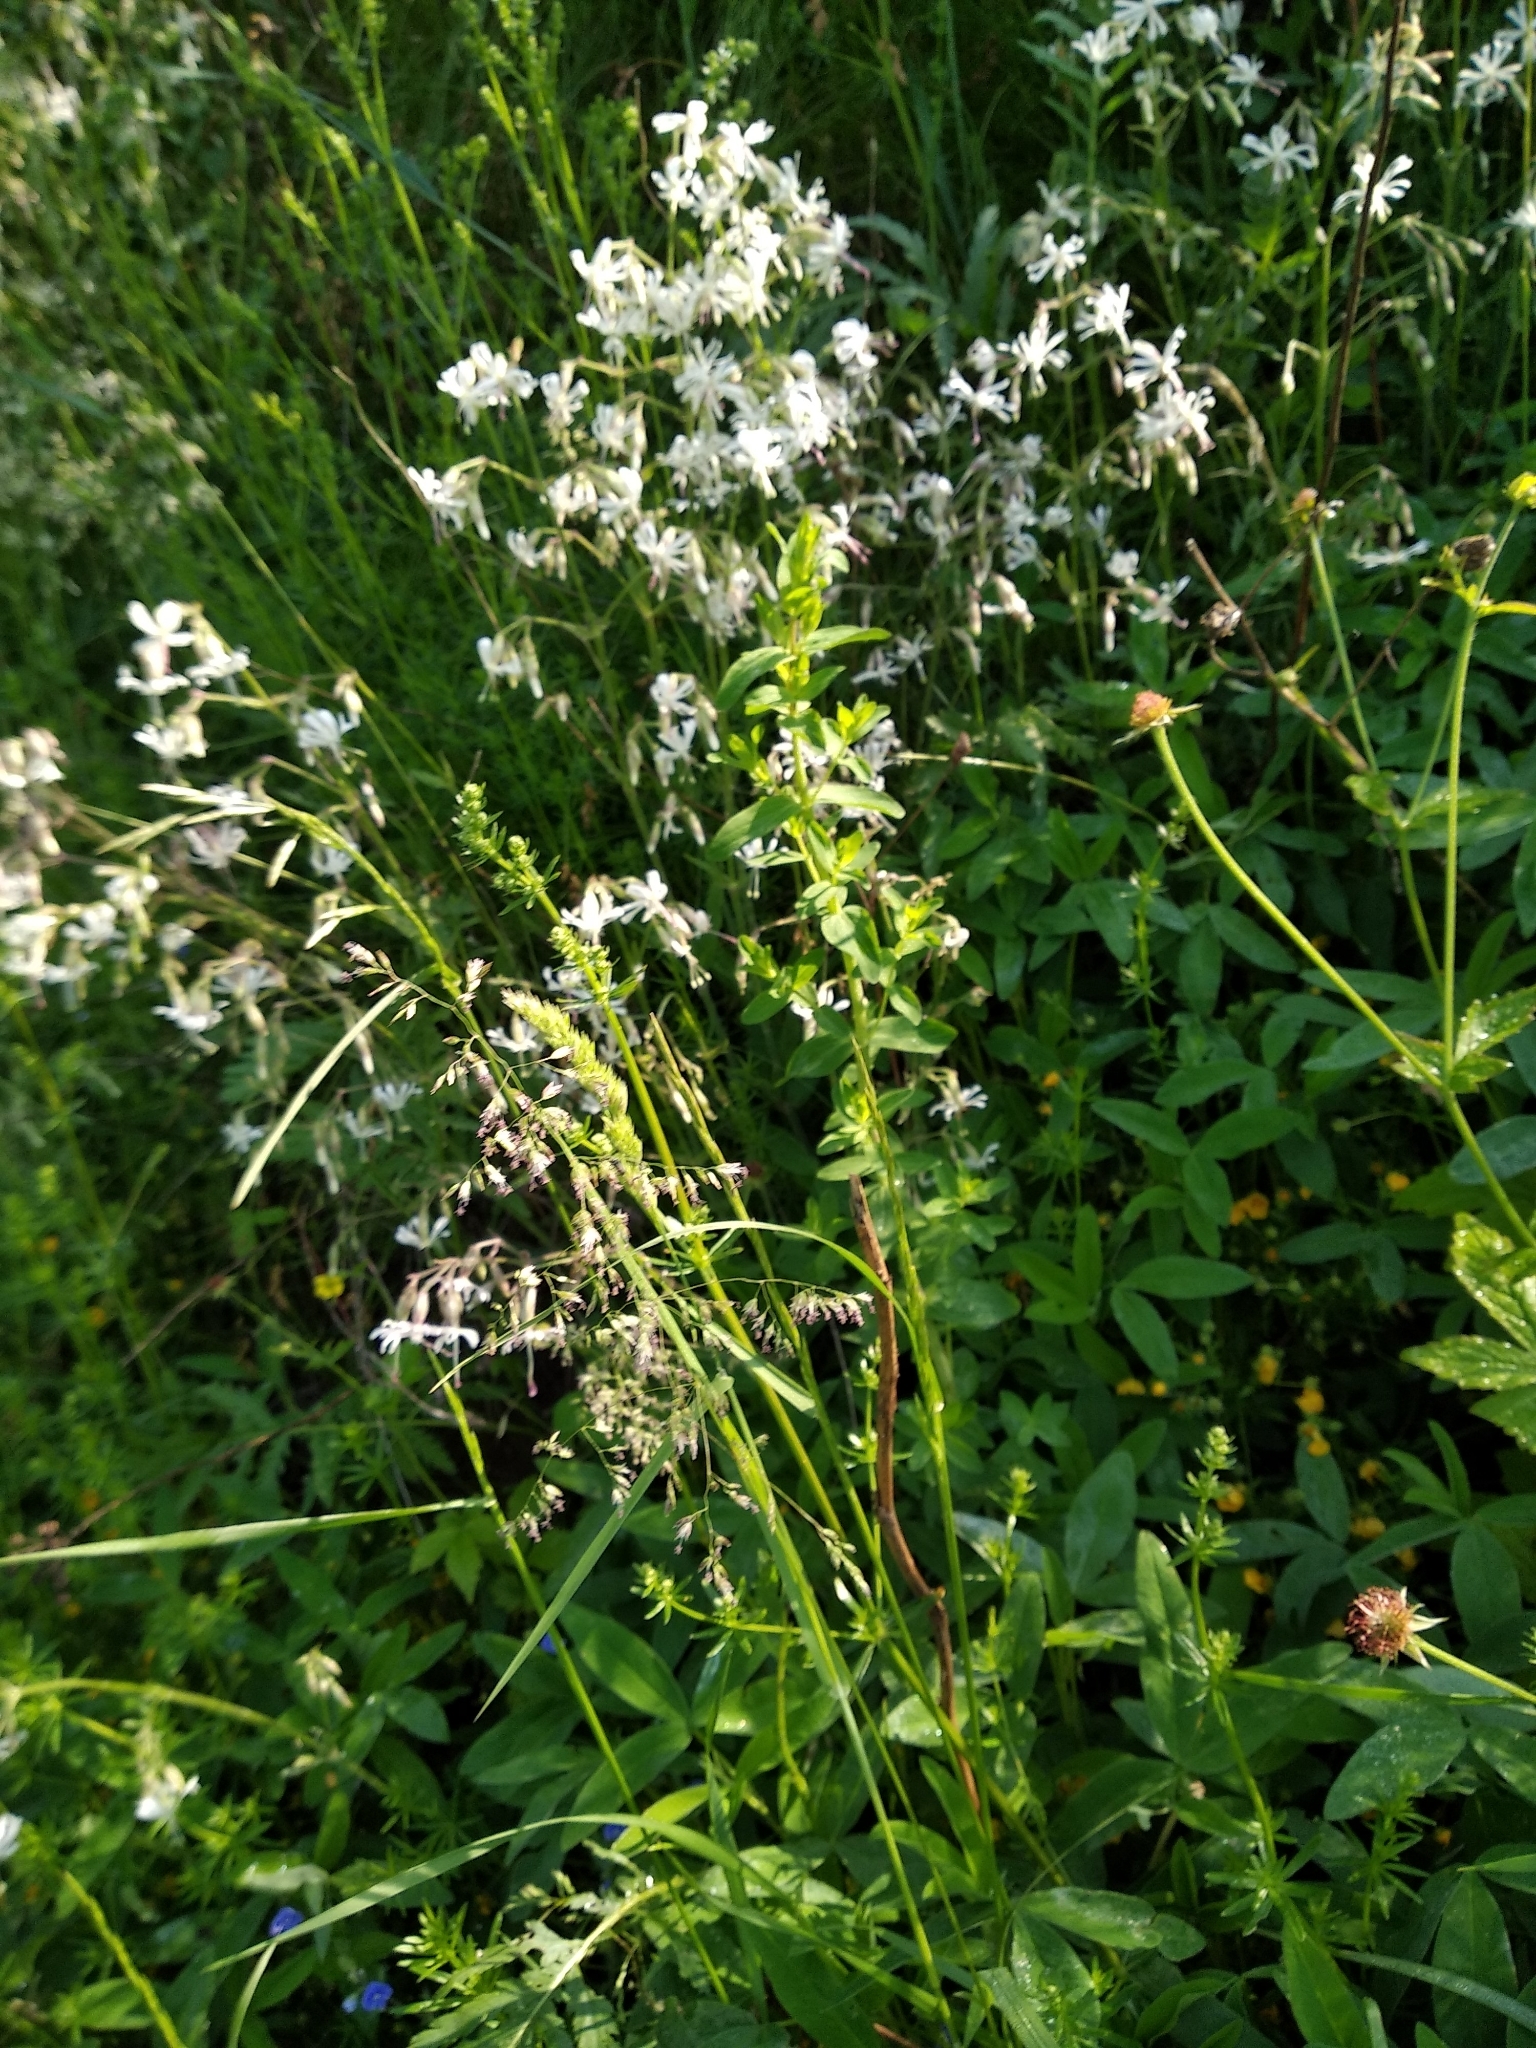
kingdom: Plantae
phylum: Tracheophyta
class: Magnoliopsida
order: Caryophyllales
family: Caryophyllaceae
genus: Silene
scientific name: Silene nutans
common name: Nottingham catchfly
